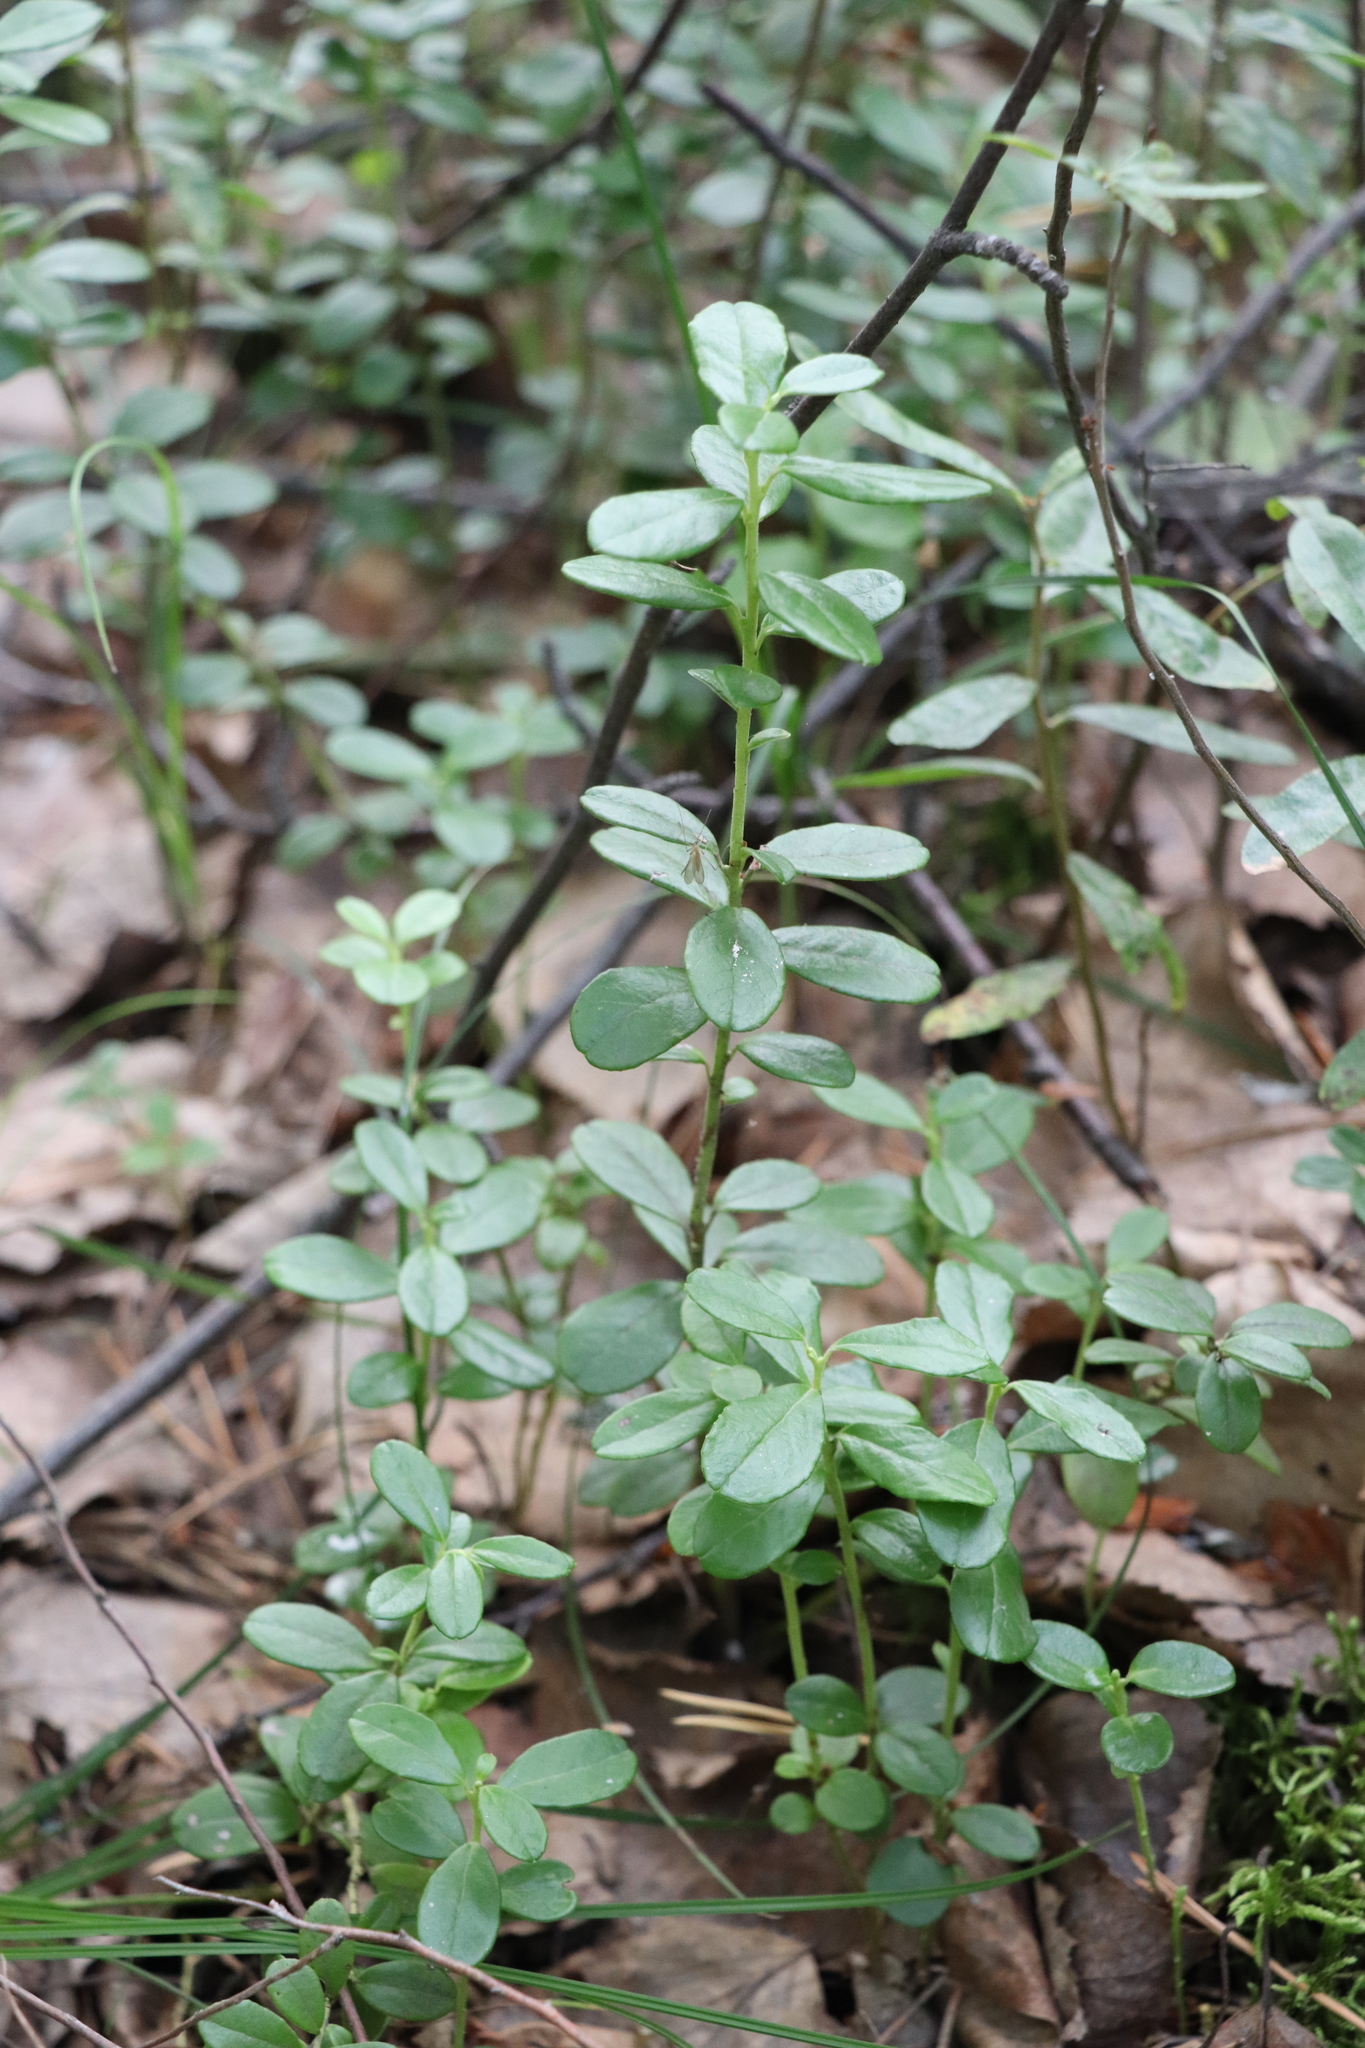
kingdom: Plantae
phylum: Tracheophyta
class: Magnoliopsida
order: Ericales
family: Ericaceae
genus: Vaccinium
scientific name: Vaccinium vitis-idaea
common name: Cowberry
